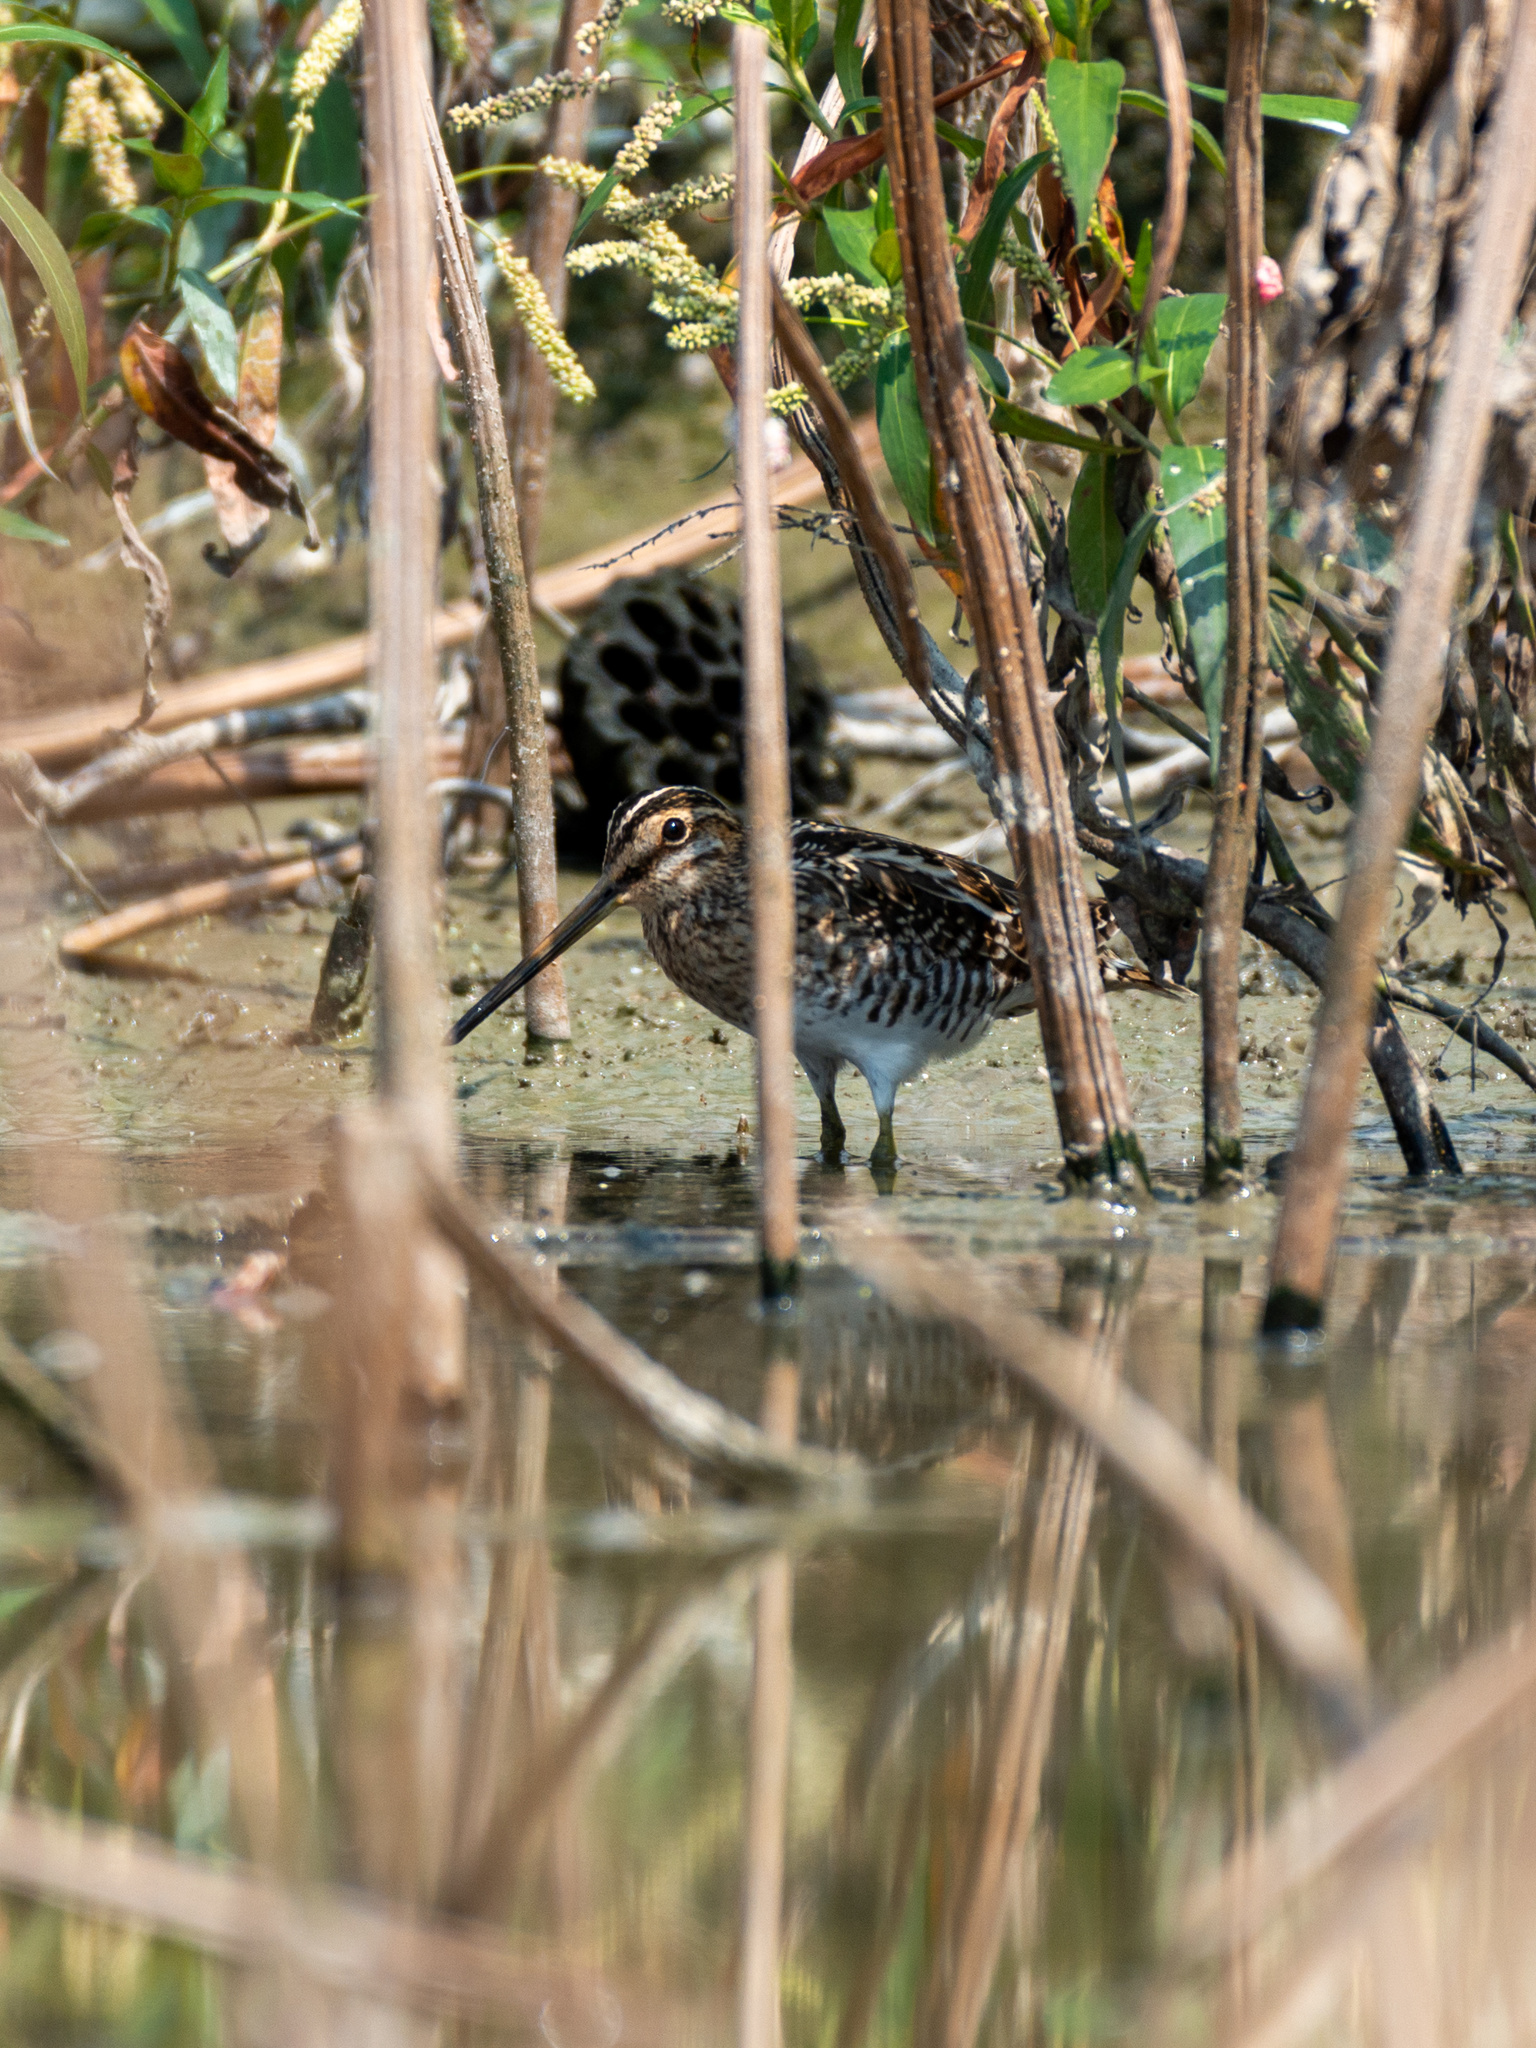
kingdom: Animalia
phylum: Chordata
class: Aves
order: Charadriiformes
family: Scolopacidae
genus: Gallinago
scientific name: Gallinago gallinago
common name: Common snipe
